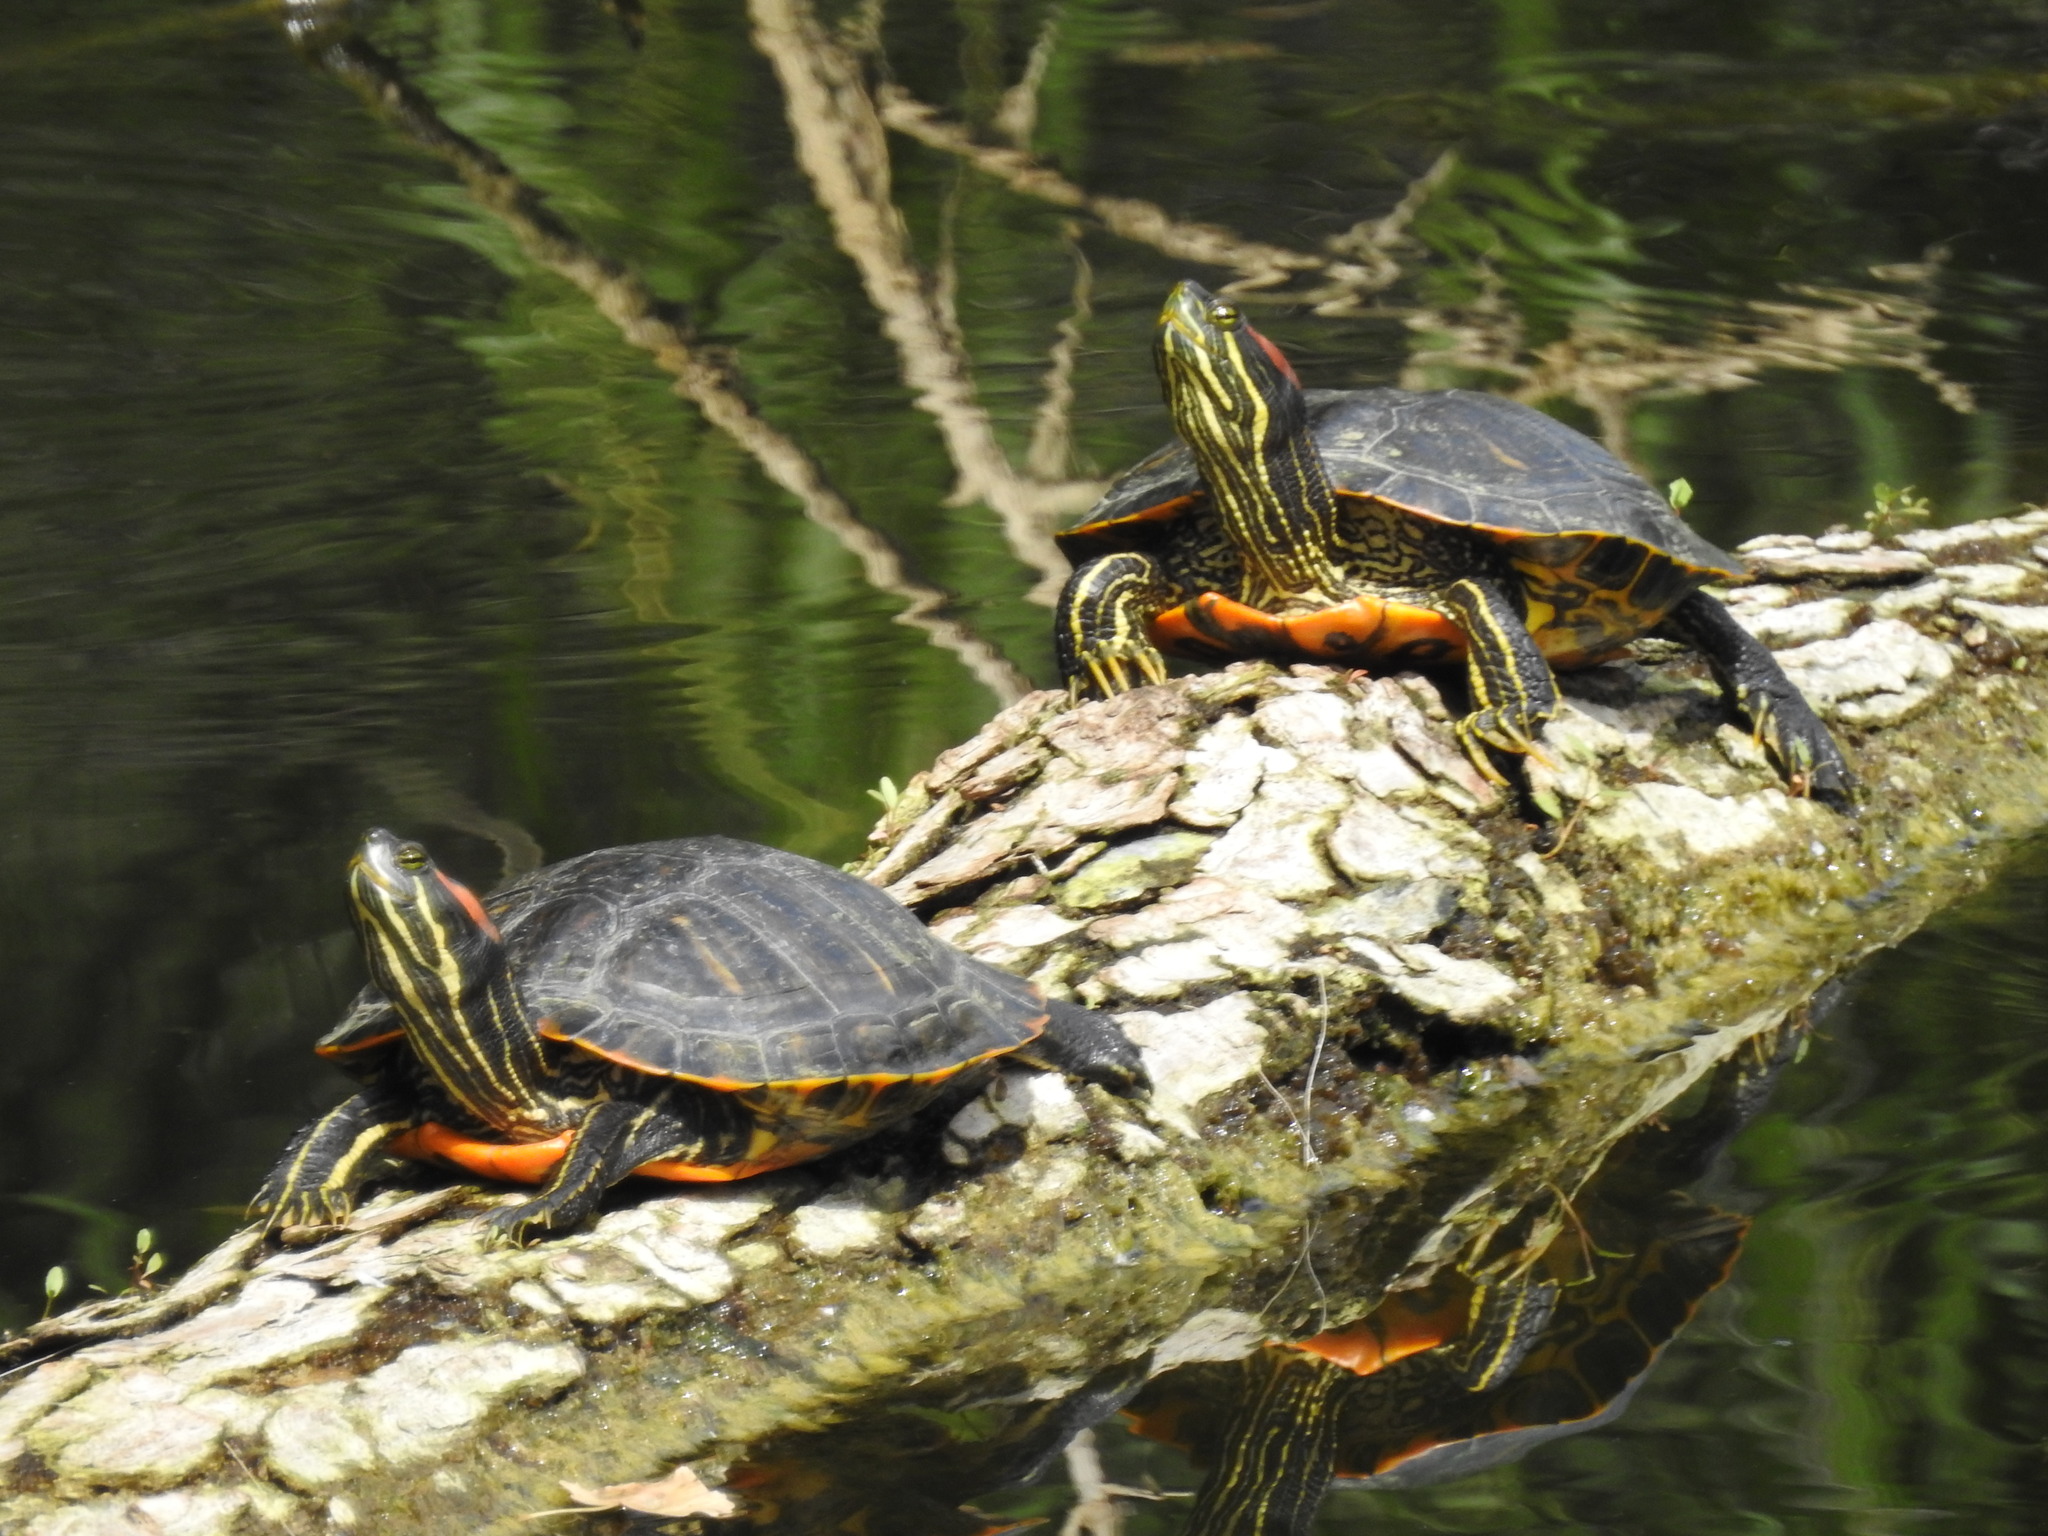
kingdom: Animalia
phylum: Chordata
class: Testudines
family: Emydidae
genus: Trachemys
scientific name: Trachemys scripta
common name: Slider
